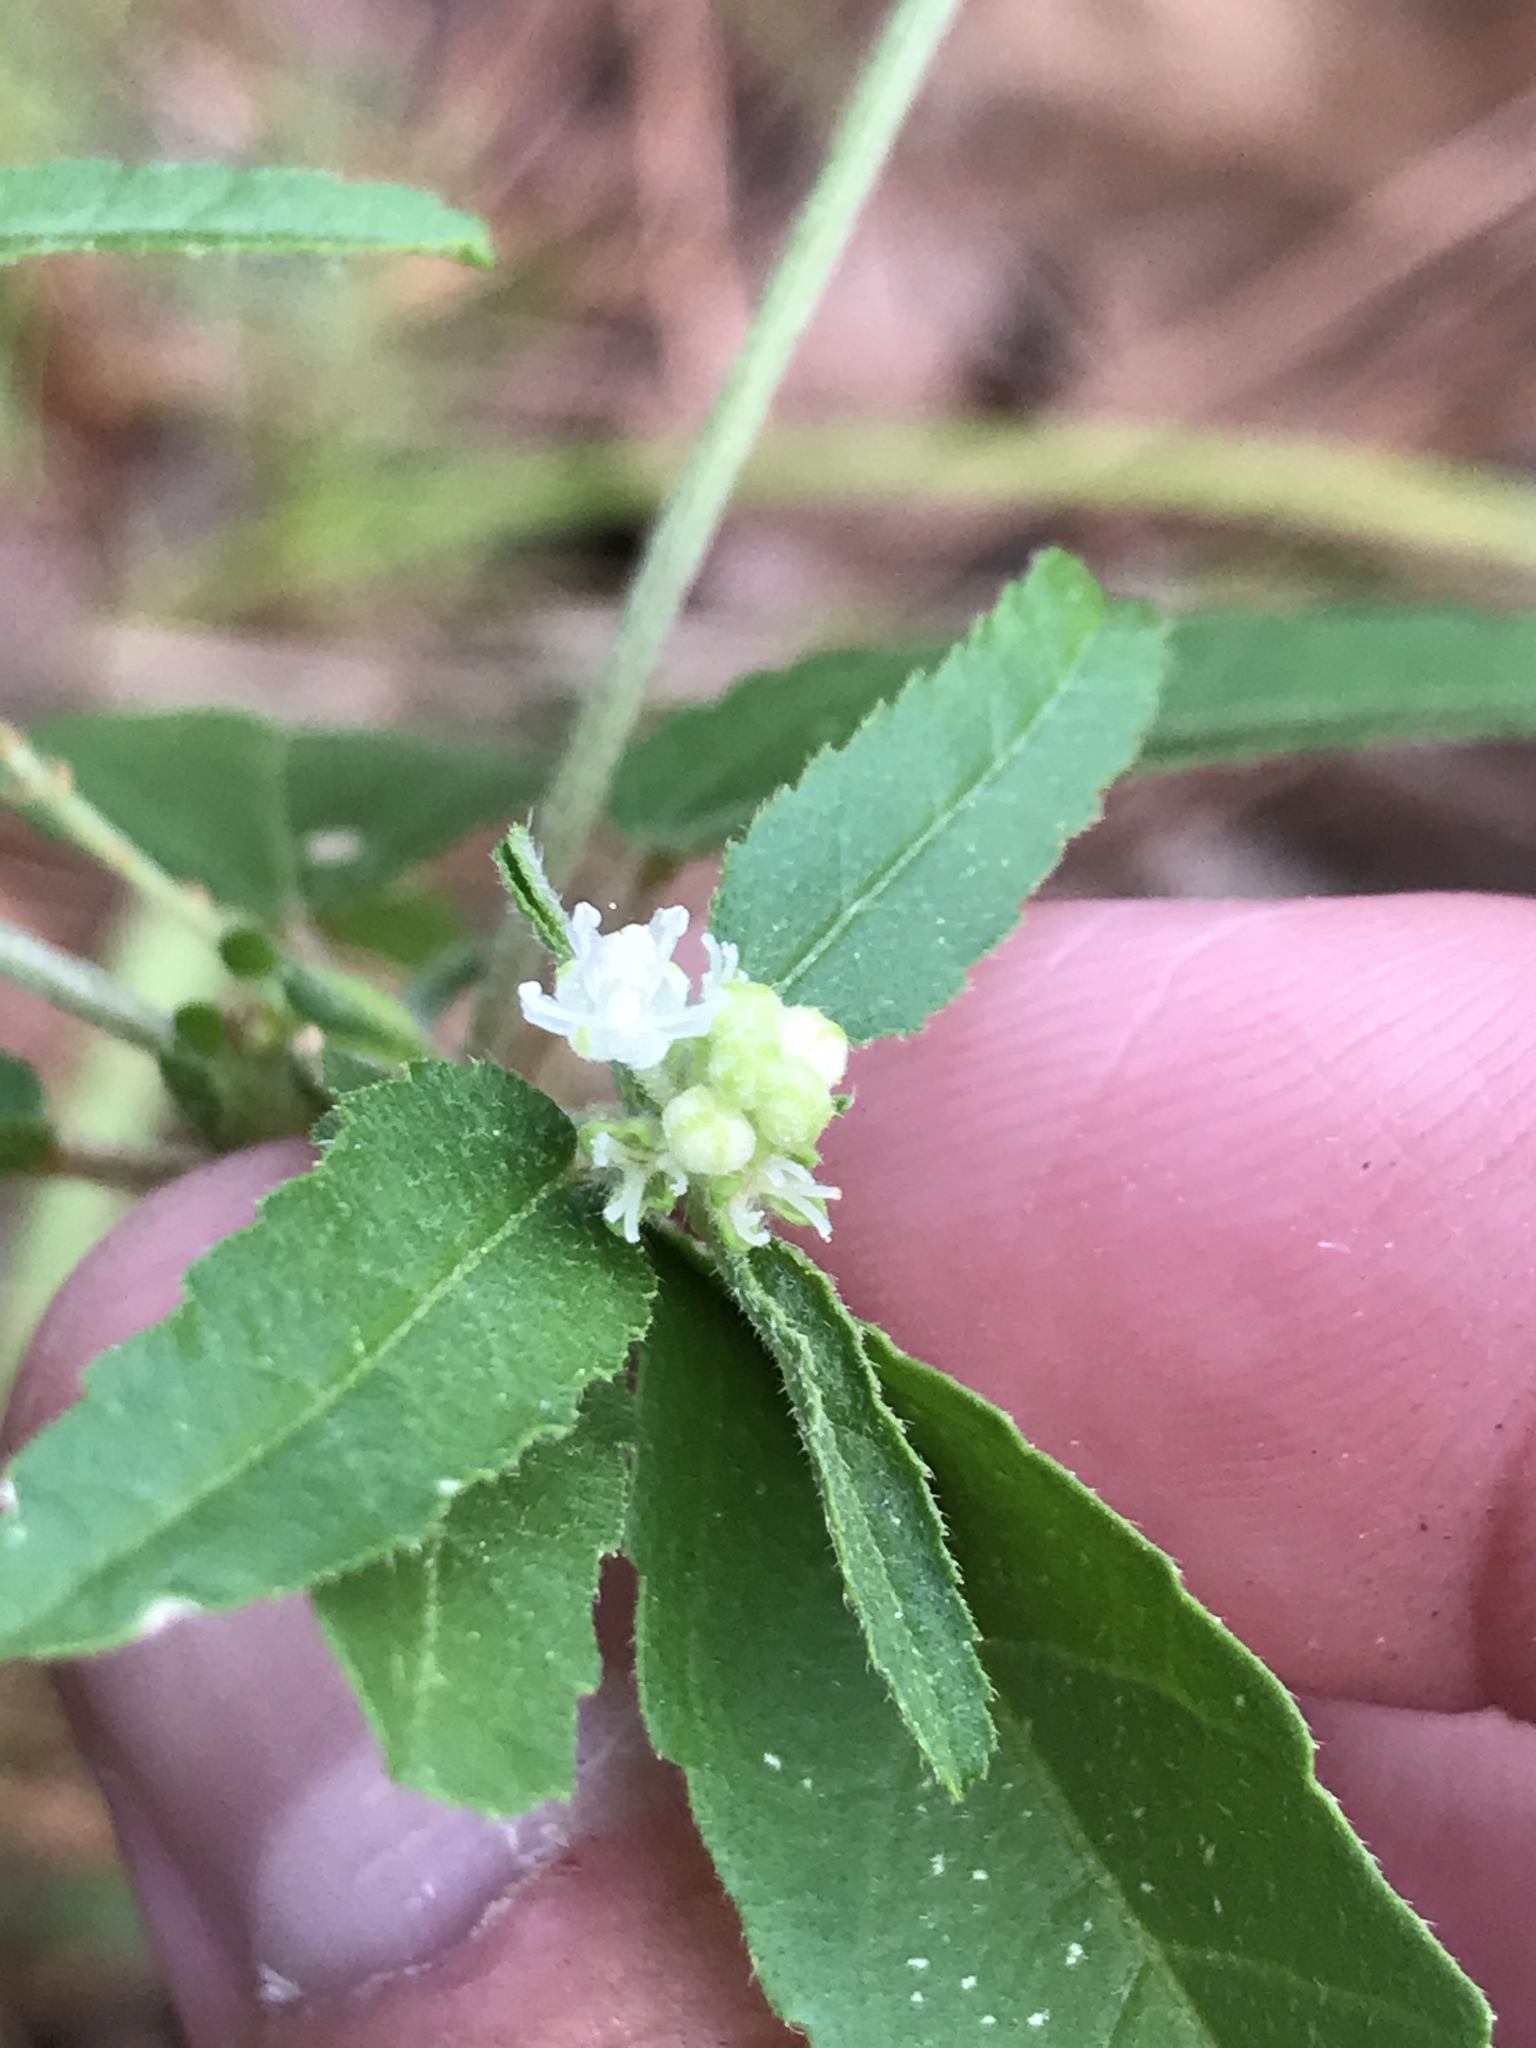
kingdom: Plantae
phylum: Tracheophyta
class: Magnoliopsida
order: Malpighiales
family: Euphorbiaceae
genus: Croton
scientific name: Croton glandulosus
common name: Tropic croton
